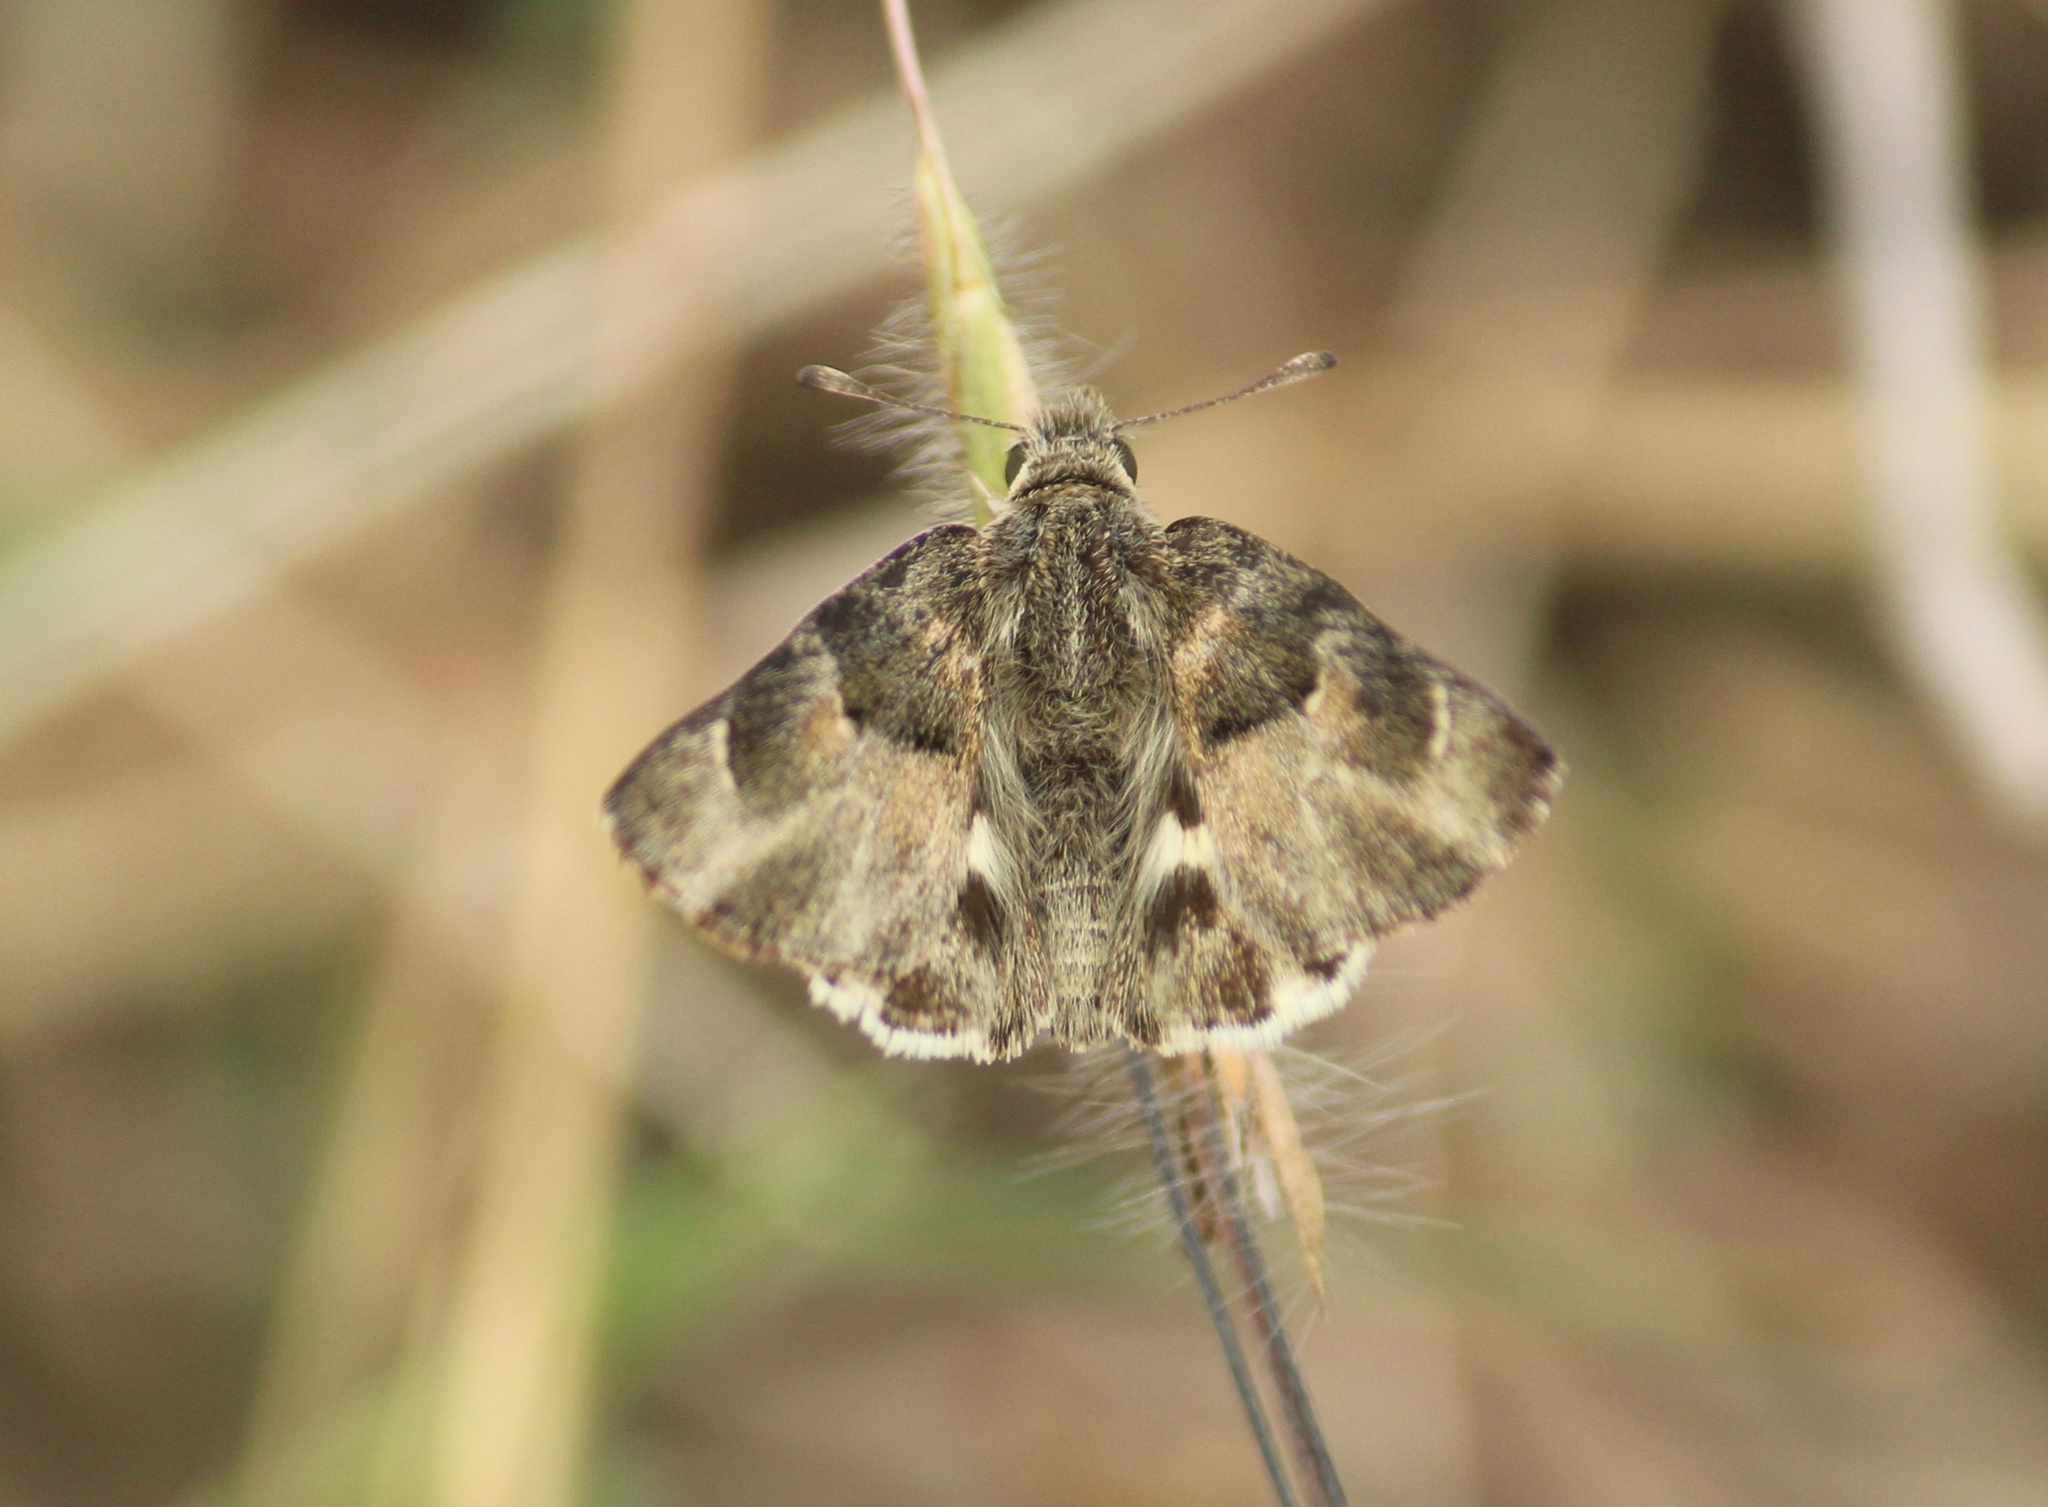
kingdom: Animalia
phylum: Arthropoda
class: Insecta
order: Lepidoptera
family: Hesperiidae
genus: Gomalia
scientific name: Gomalia elma
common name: Green-marbled skipper
